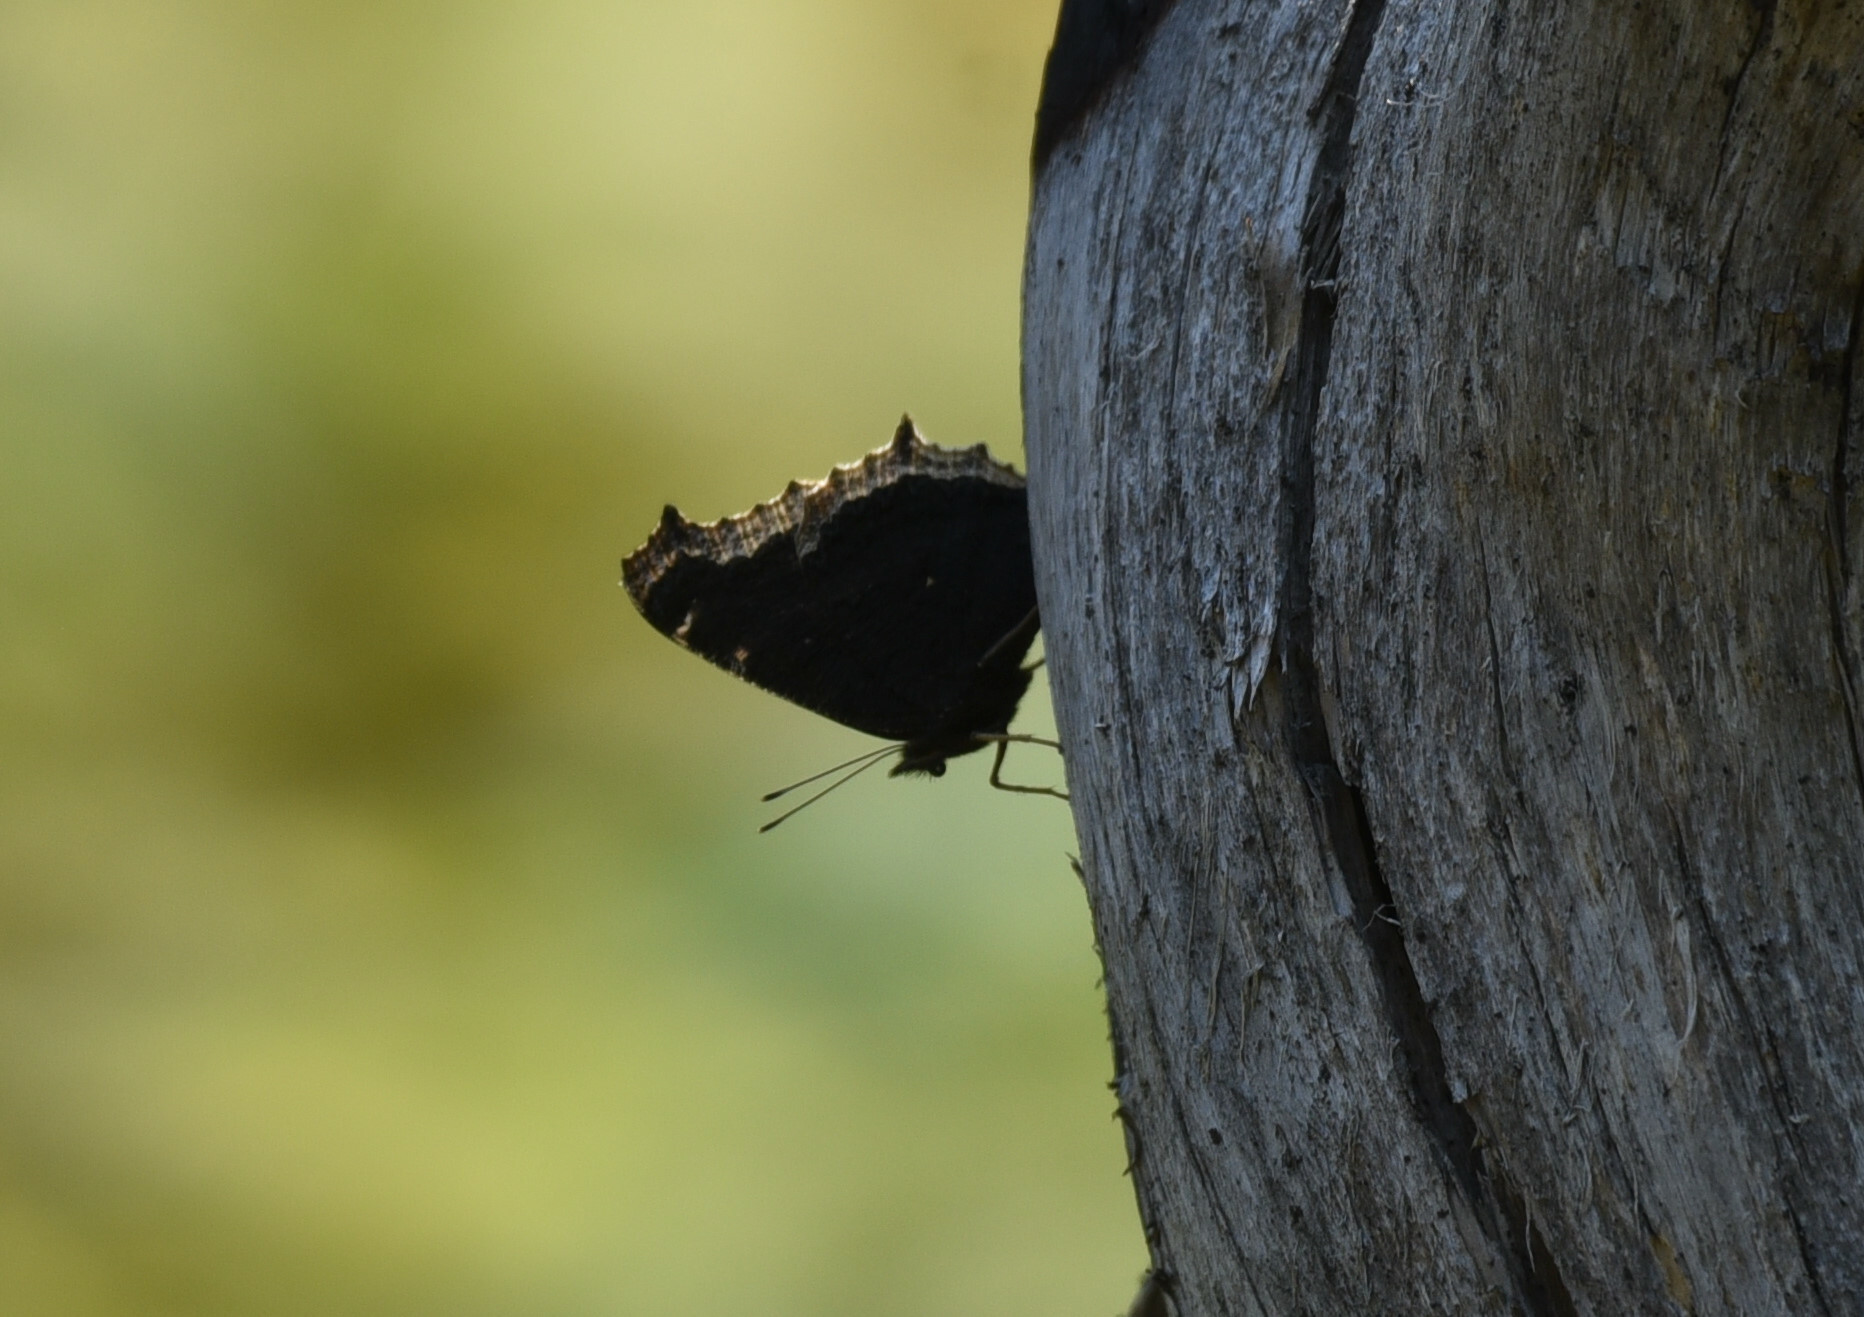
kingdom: Animalia
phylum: Arthropoda
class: Insecta
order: Lepidoptera
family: Nymphalidae
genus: Nymphalis
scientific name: Nymphalis antiopa
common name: Camberwell beauty
